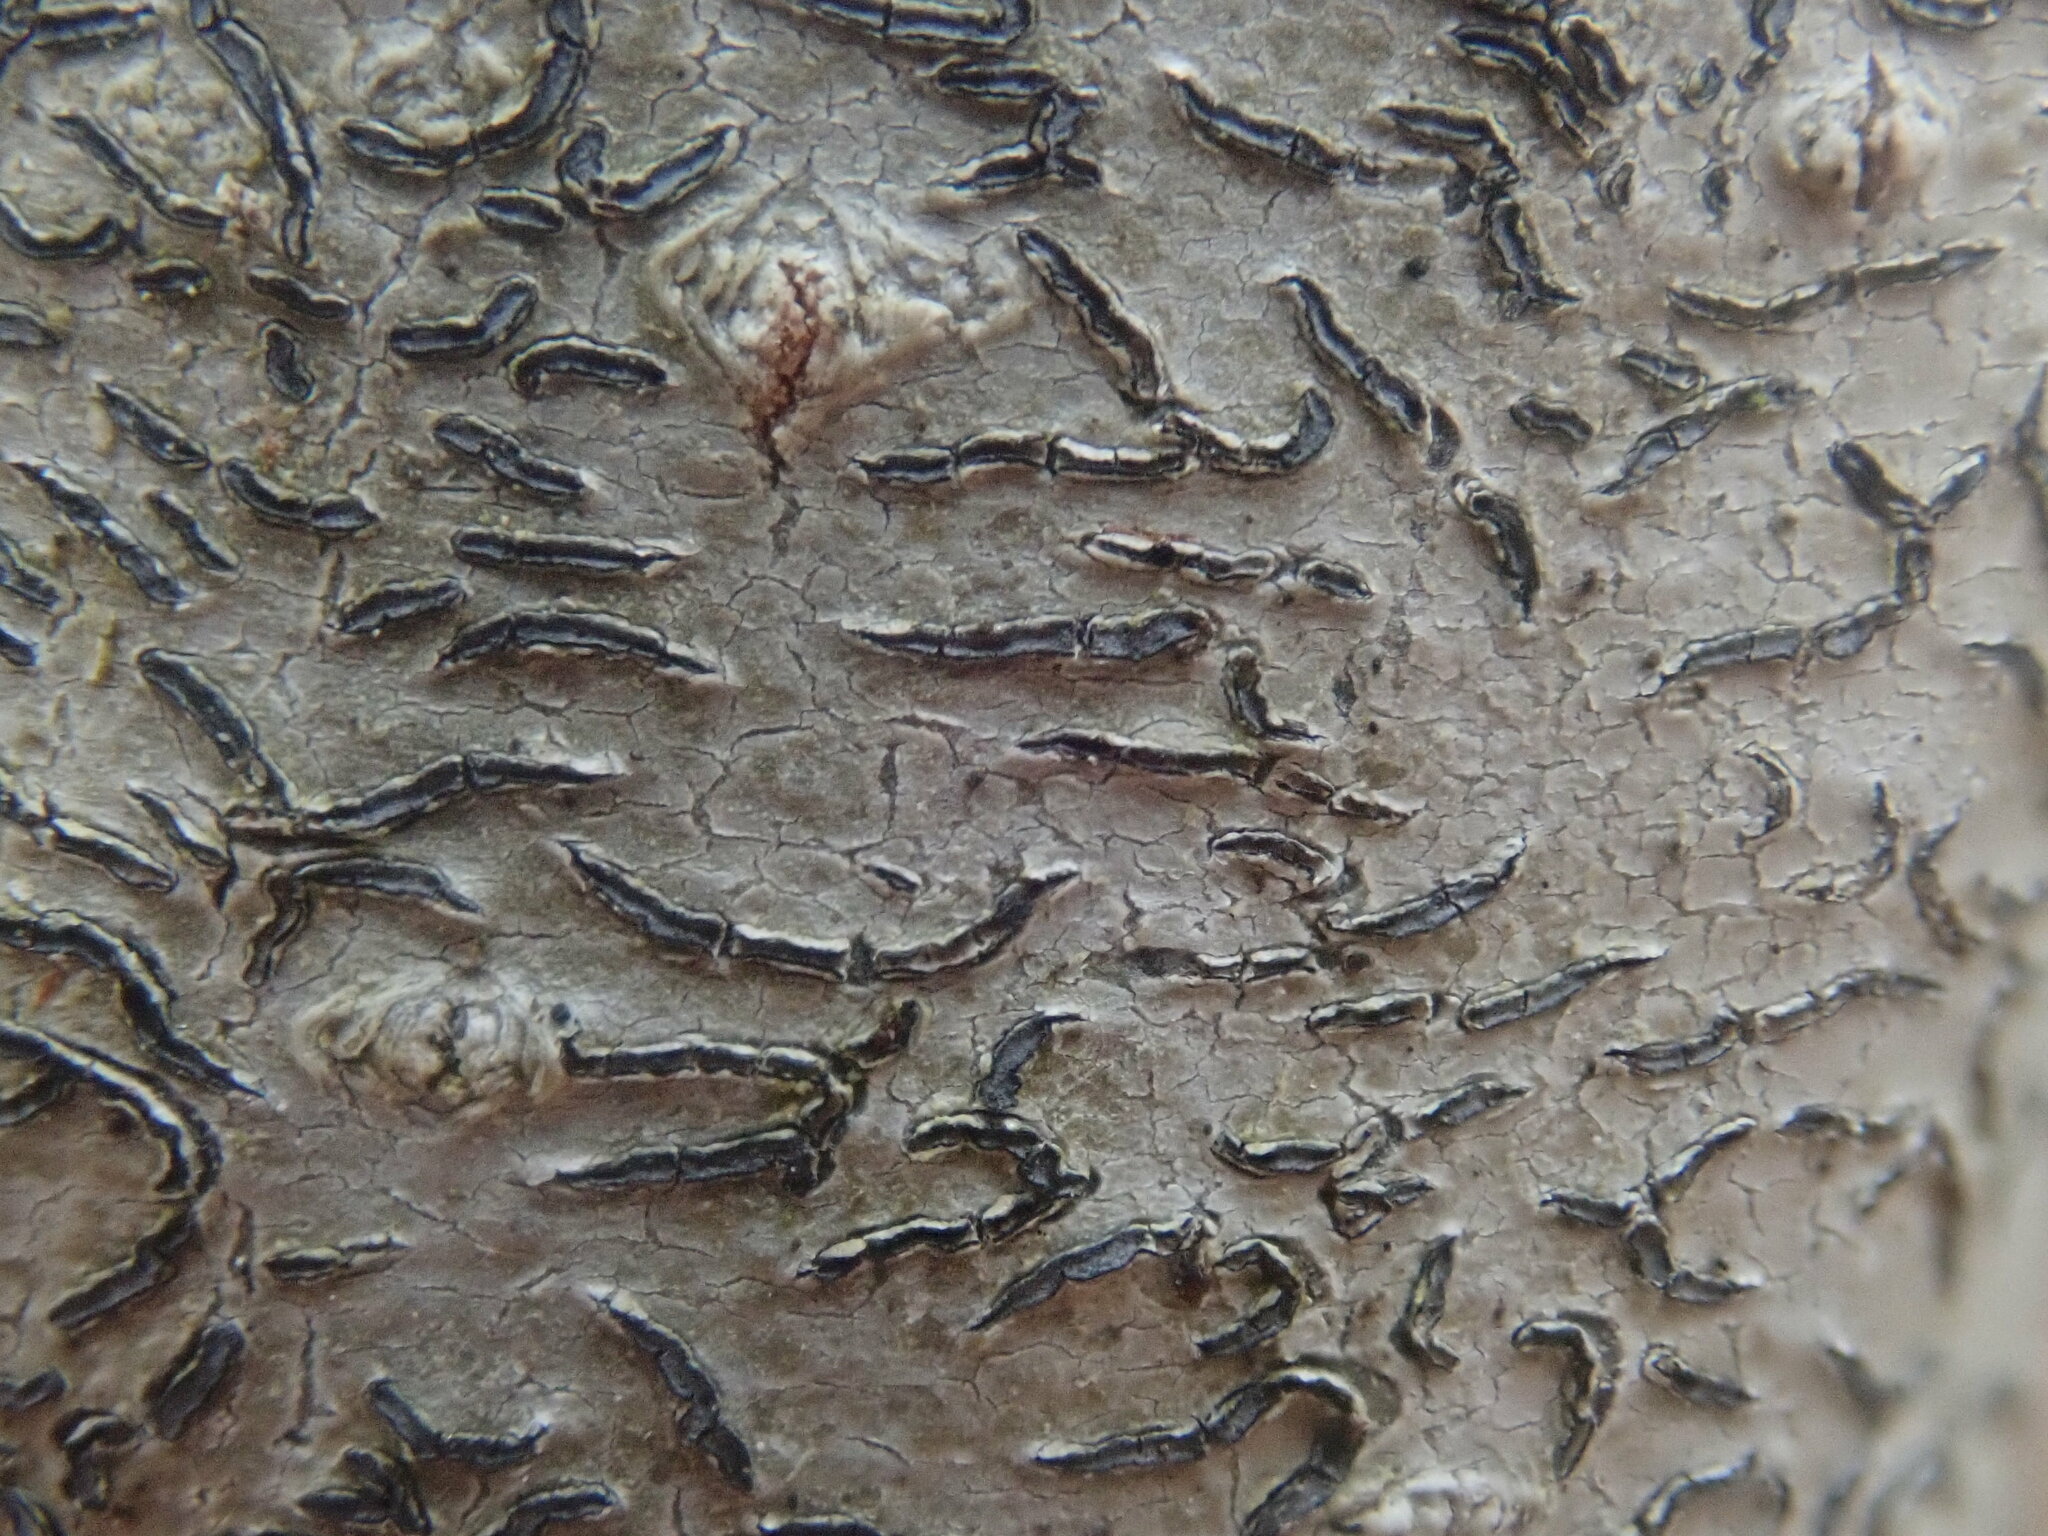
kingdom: Fungi
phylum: Ascomycota
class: Lecanoromycetes
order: Ostropales
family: Graphidaceae
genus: Graphis
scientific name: Graphis scripta
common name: Script lichen
